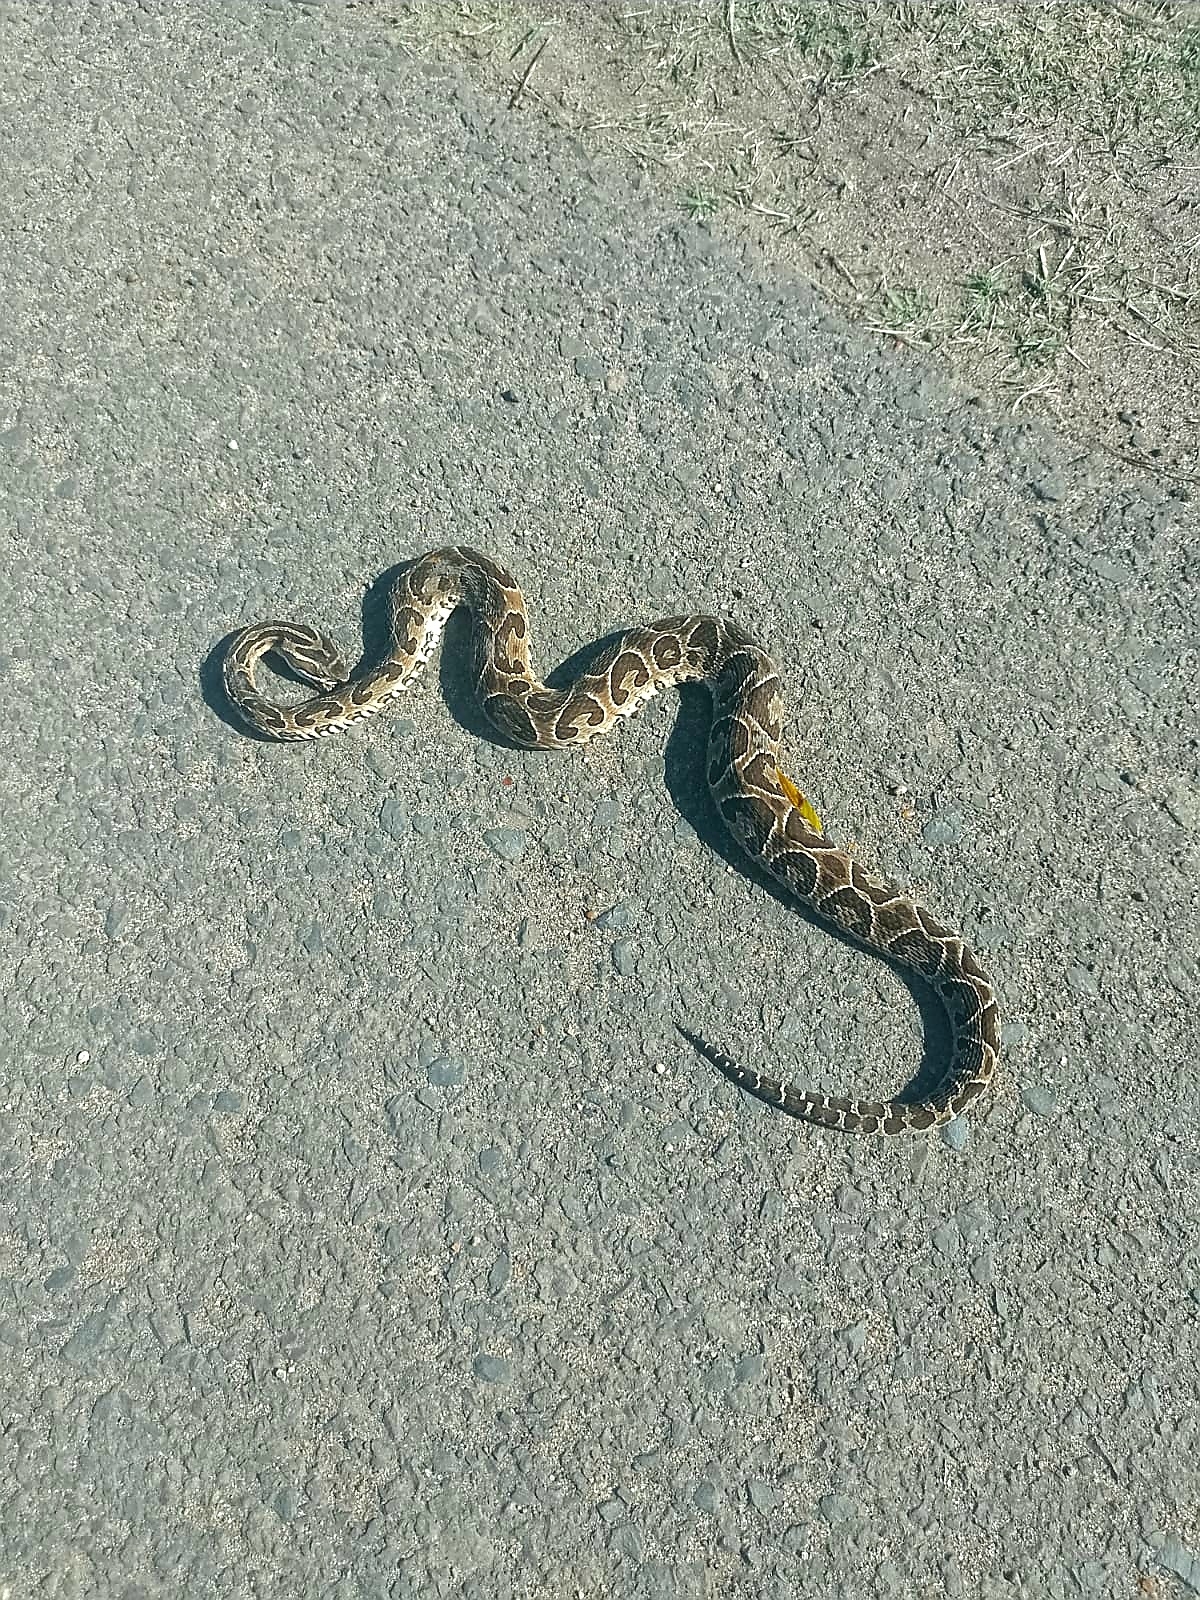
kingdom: Animalia
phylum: Chordata
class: Squamata
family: Viperidae
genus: Bothrops
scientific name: Bothrops alternatus
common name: Urutu
